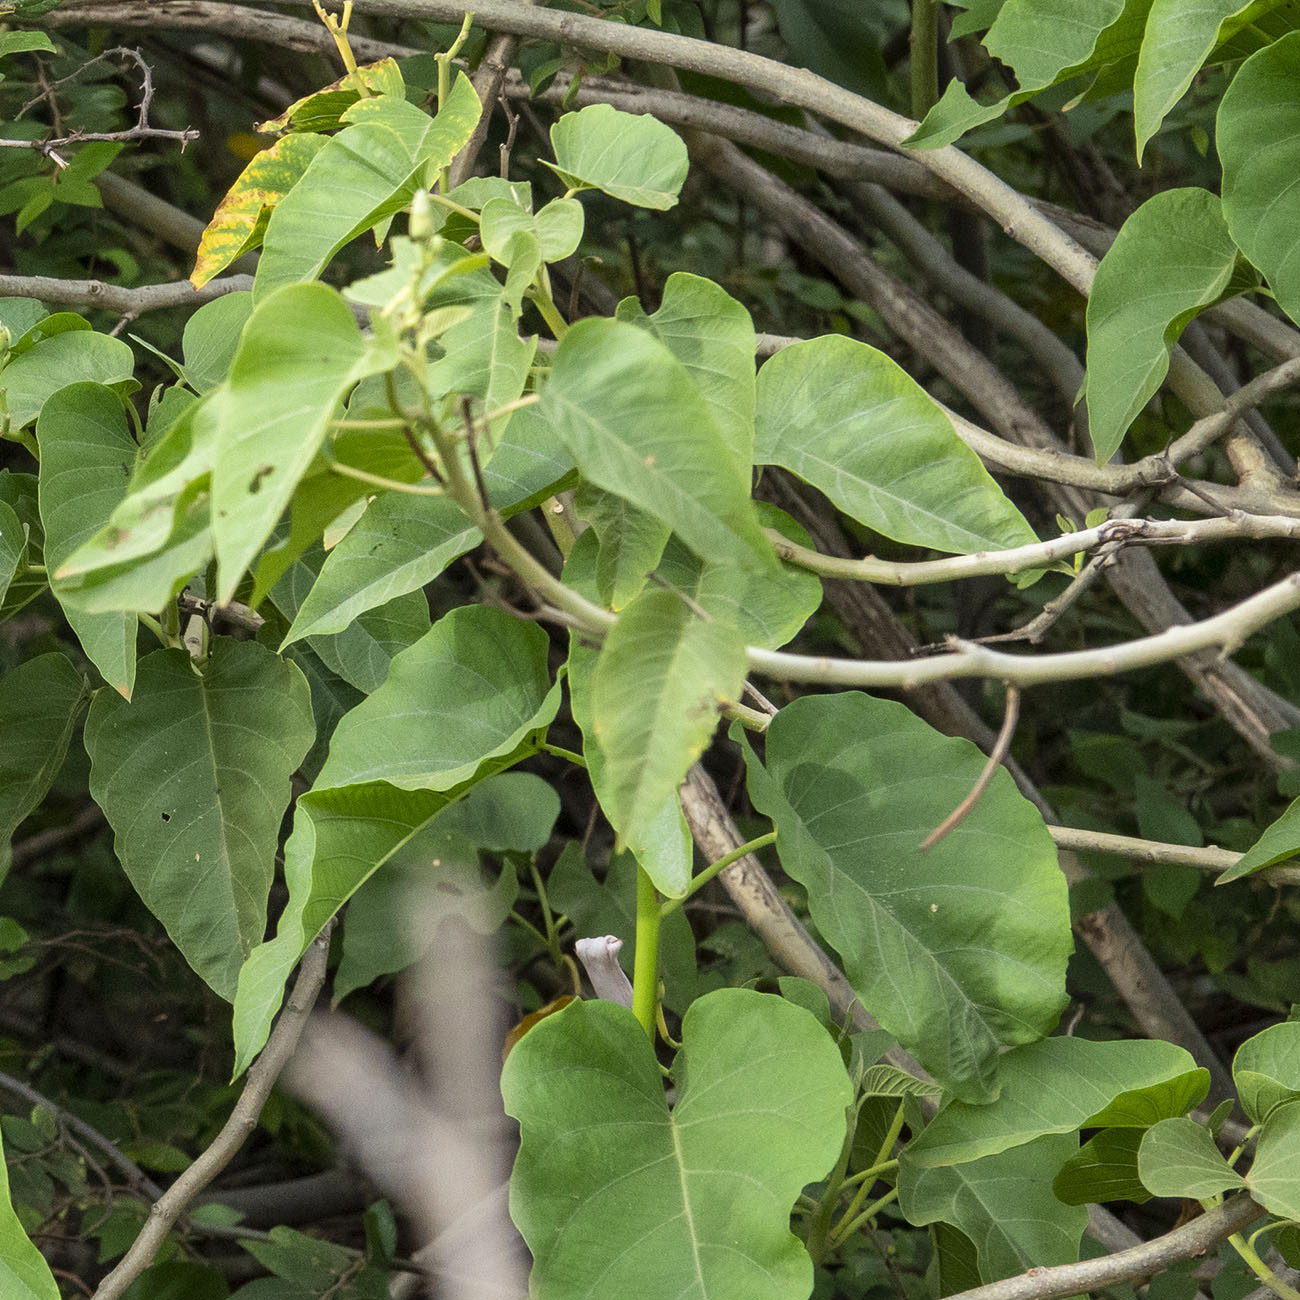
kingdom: Plantae
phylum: Tracheophyta
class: Magnoliopsida
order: Solanales
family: Convolvulaceae
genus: Ipomoea
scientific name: Ipomoea carnea
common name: Morning-glory
